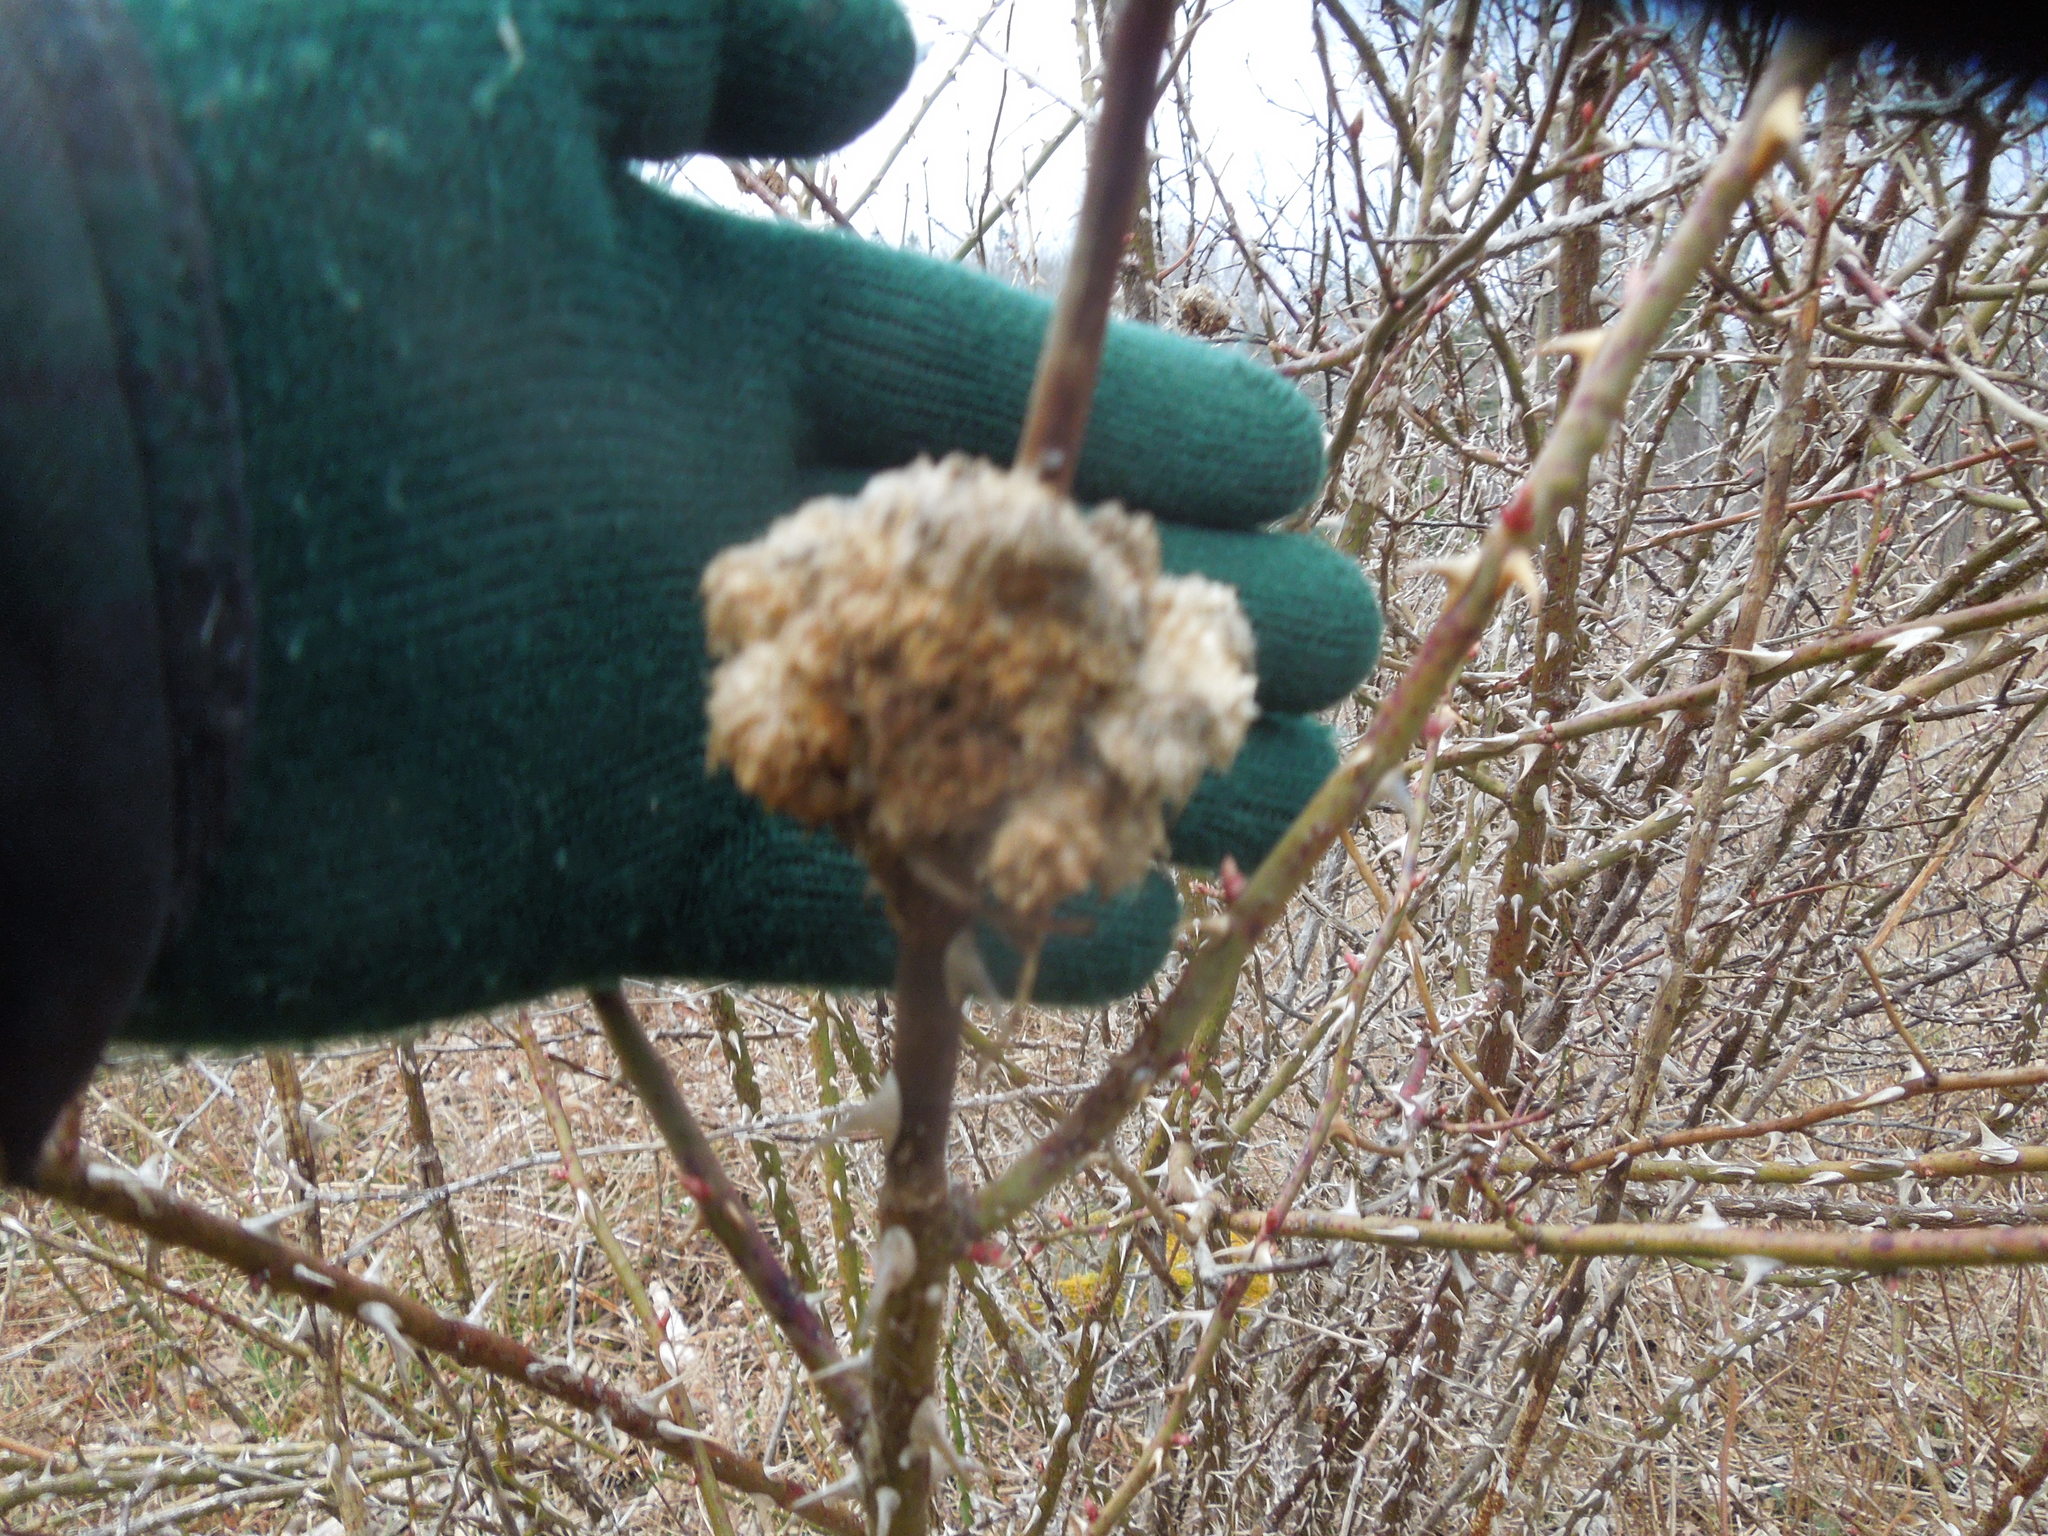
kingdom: Animalia
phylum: Arthropoda
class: Insecta
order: Hymenoptera
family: Cynipidae
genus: Diplolepis
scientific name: Diplolepis rosae
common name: Bedeguar gall
